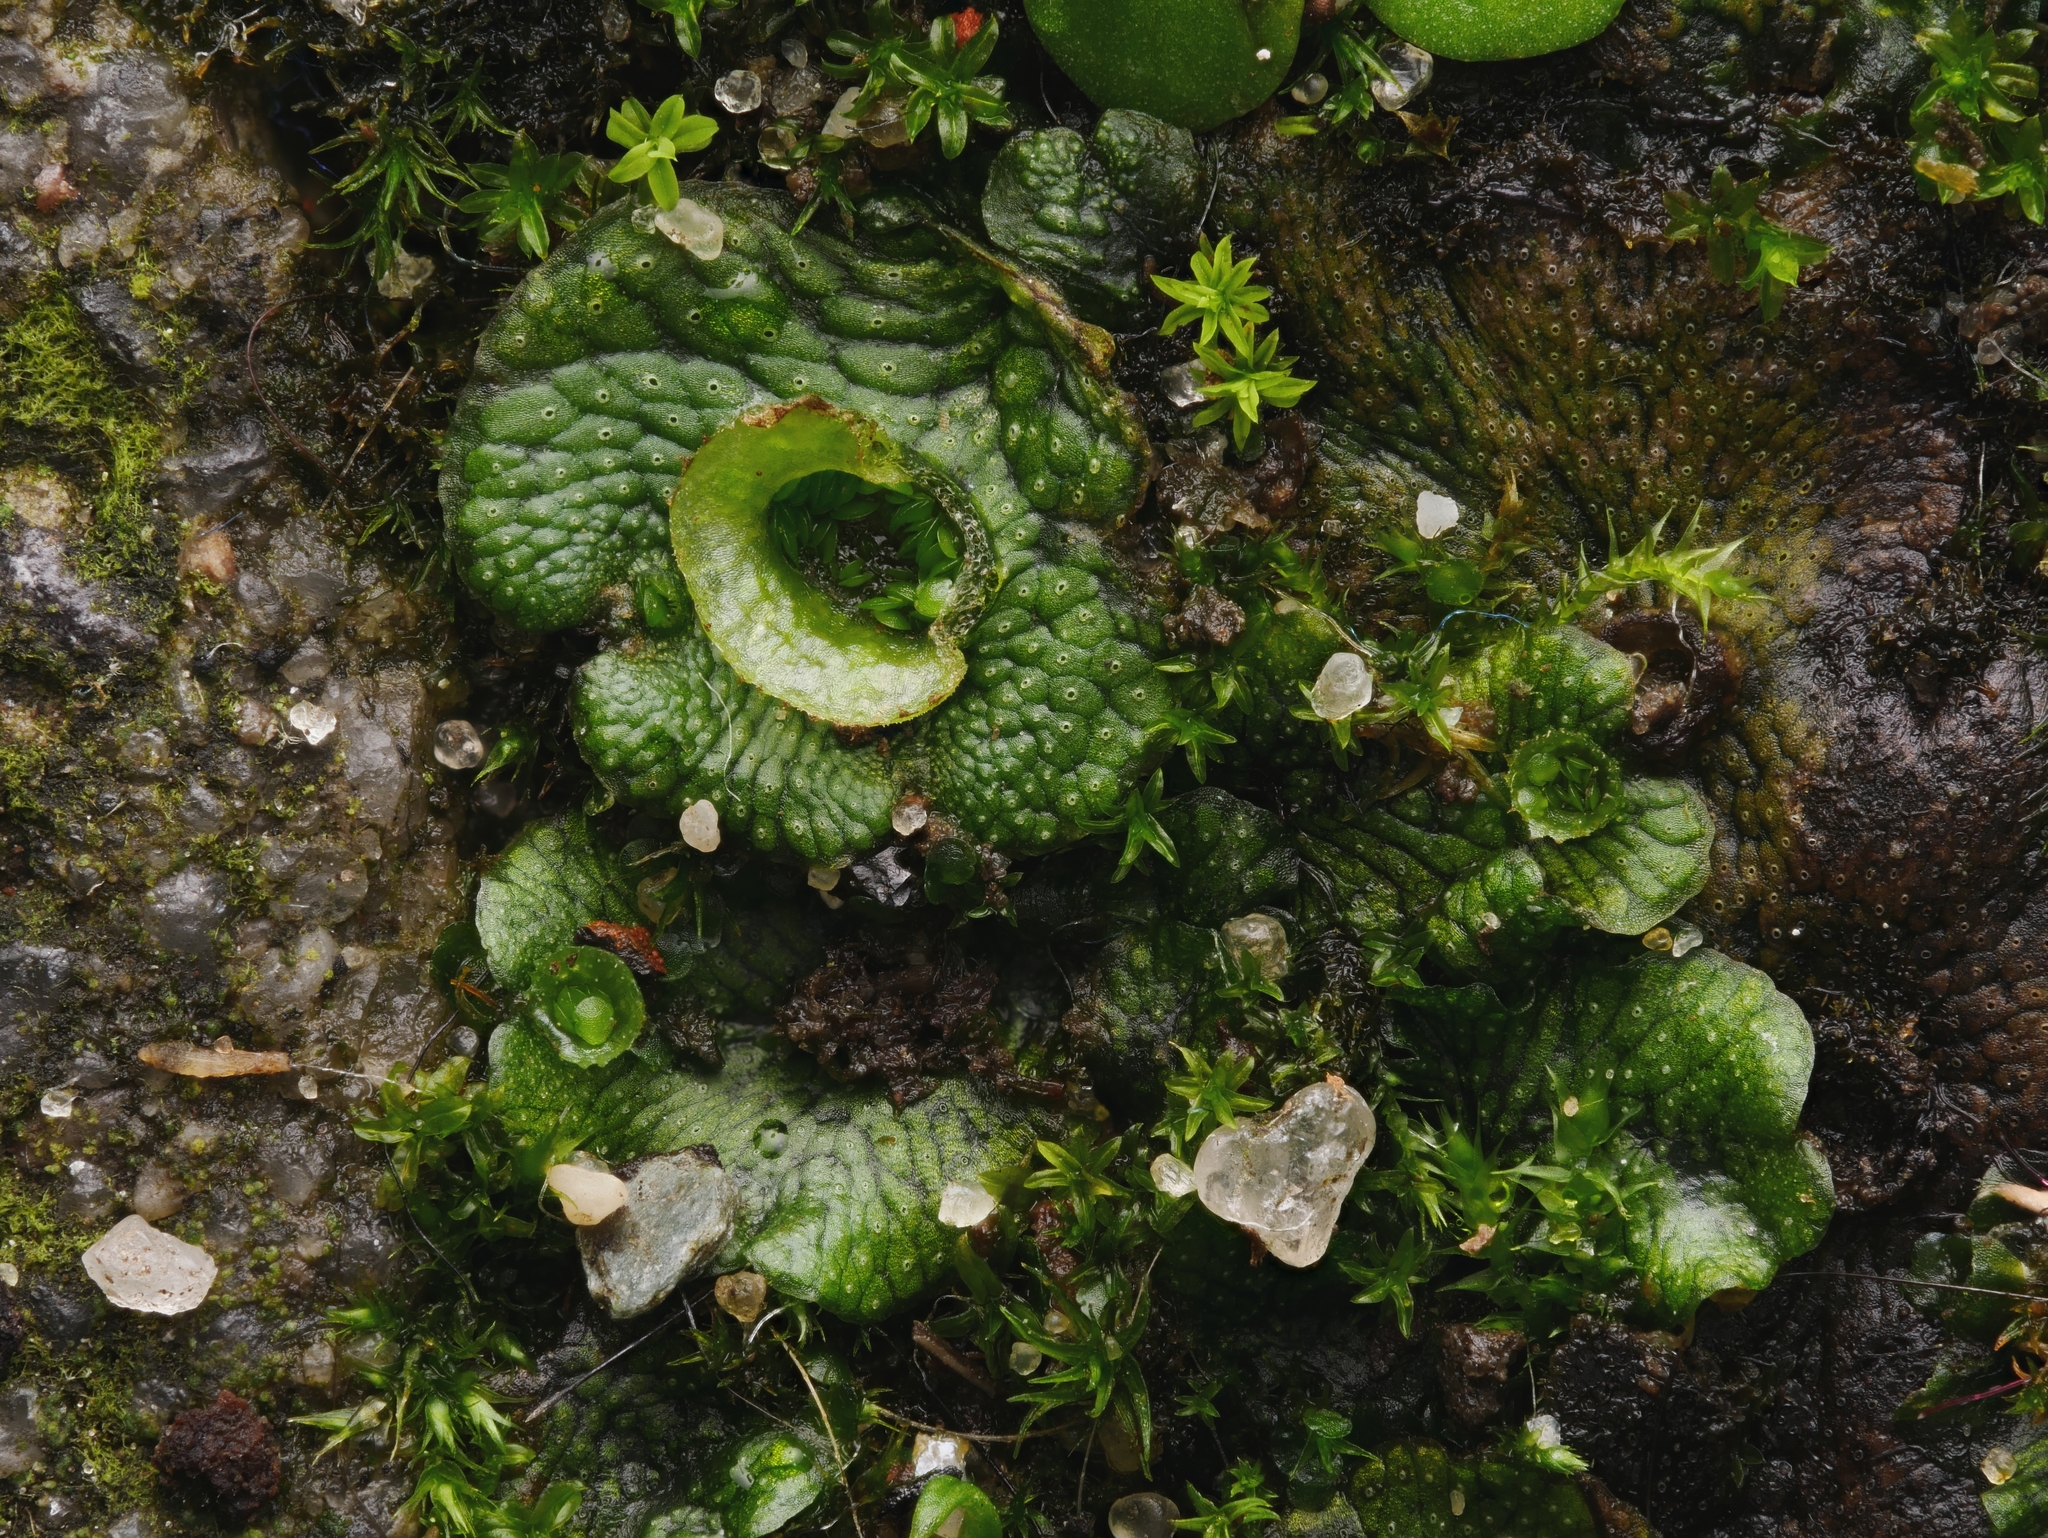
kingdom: Plantae
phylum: Marchantiophyta
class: Marchantiopsida
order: Marchantiales
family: Marchantiaceae
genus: Marchantia
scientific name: Marchantia polymorpha
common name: Common liverwort
